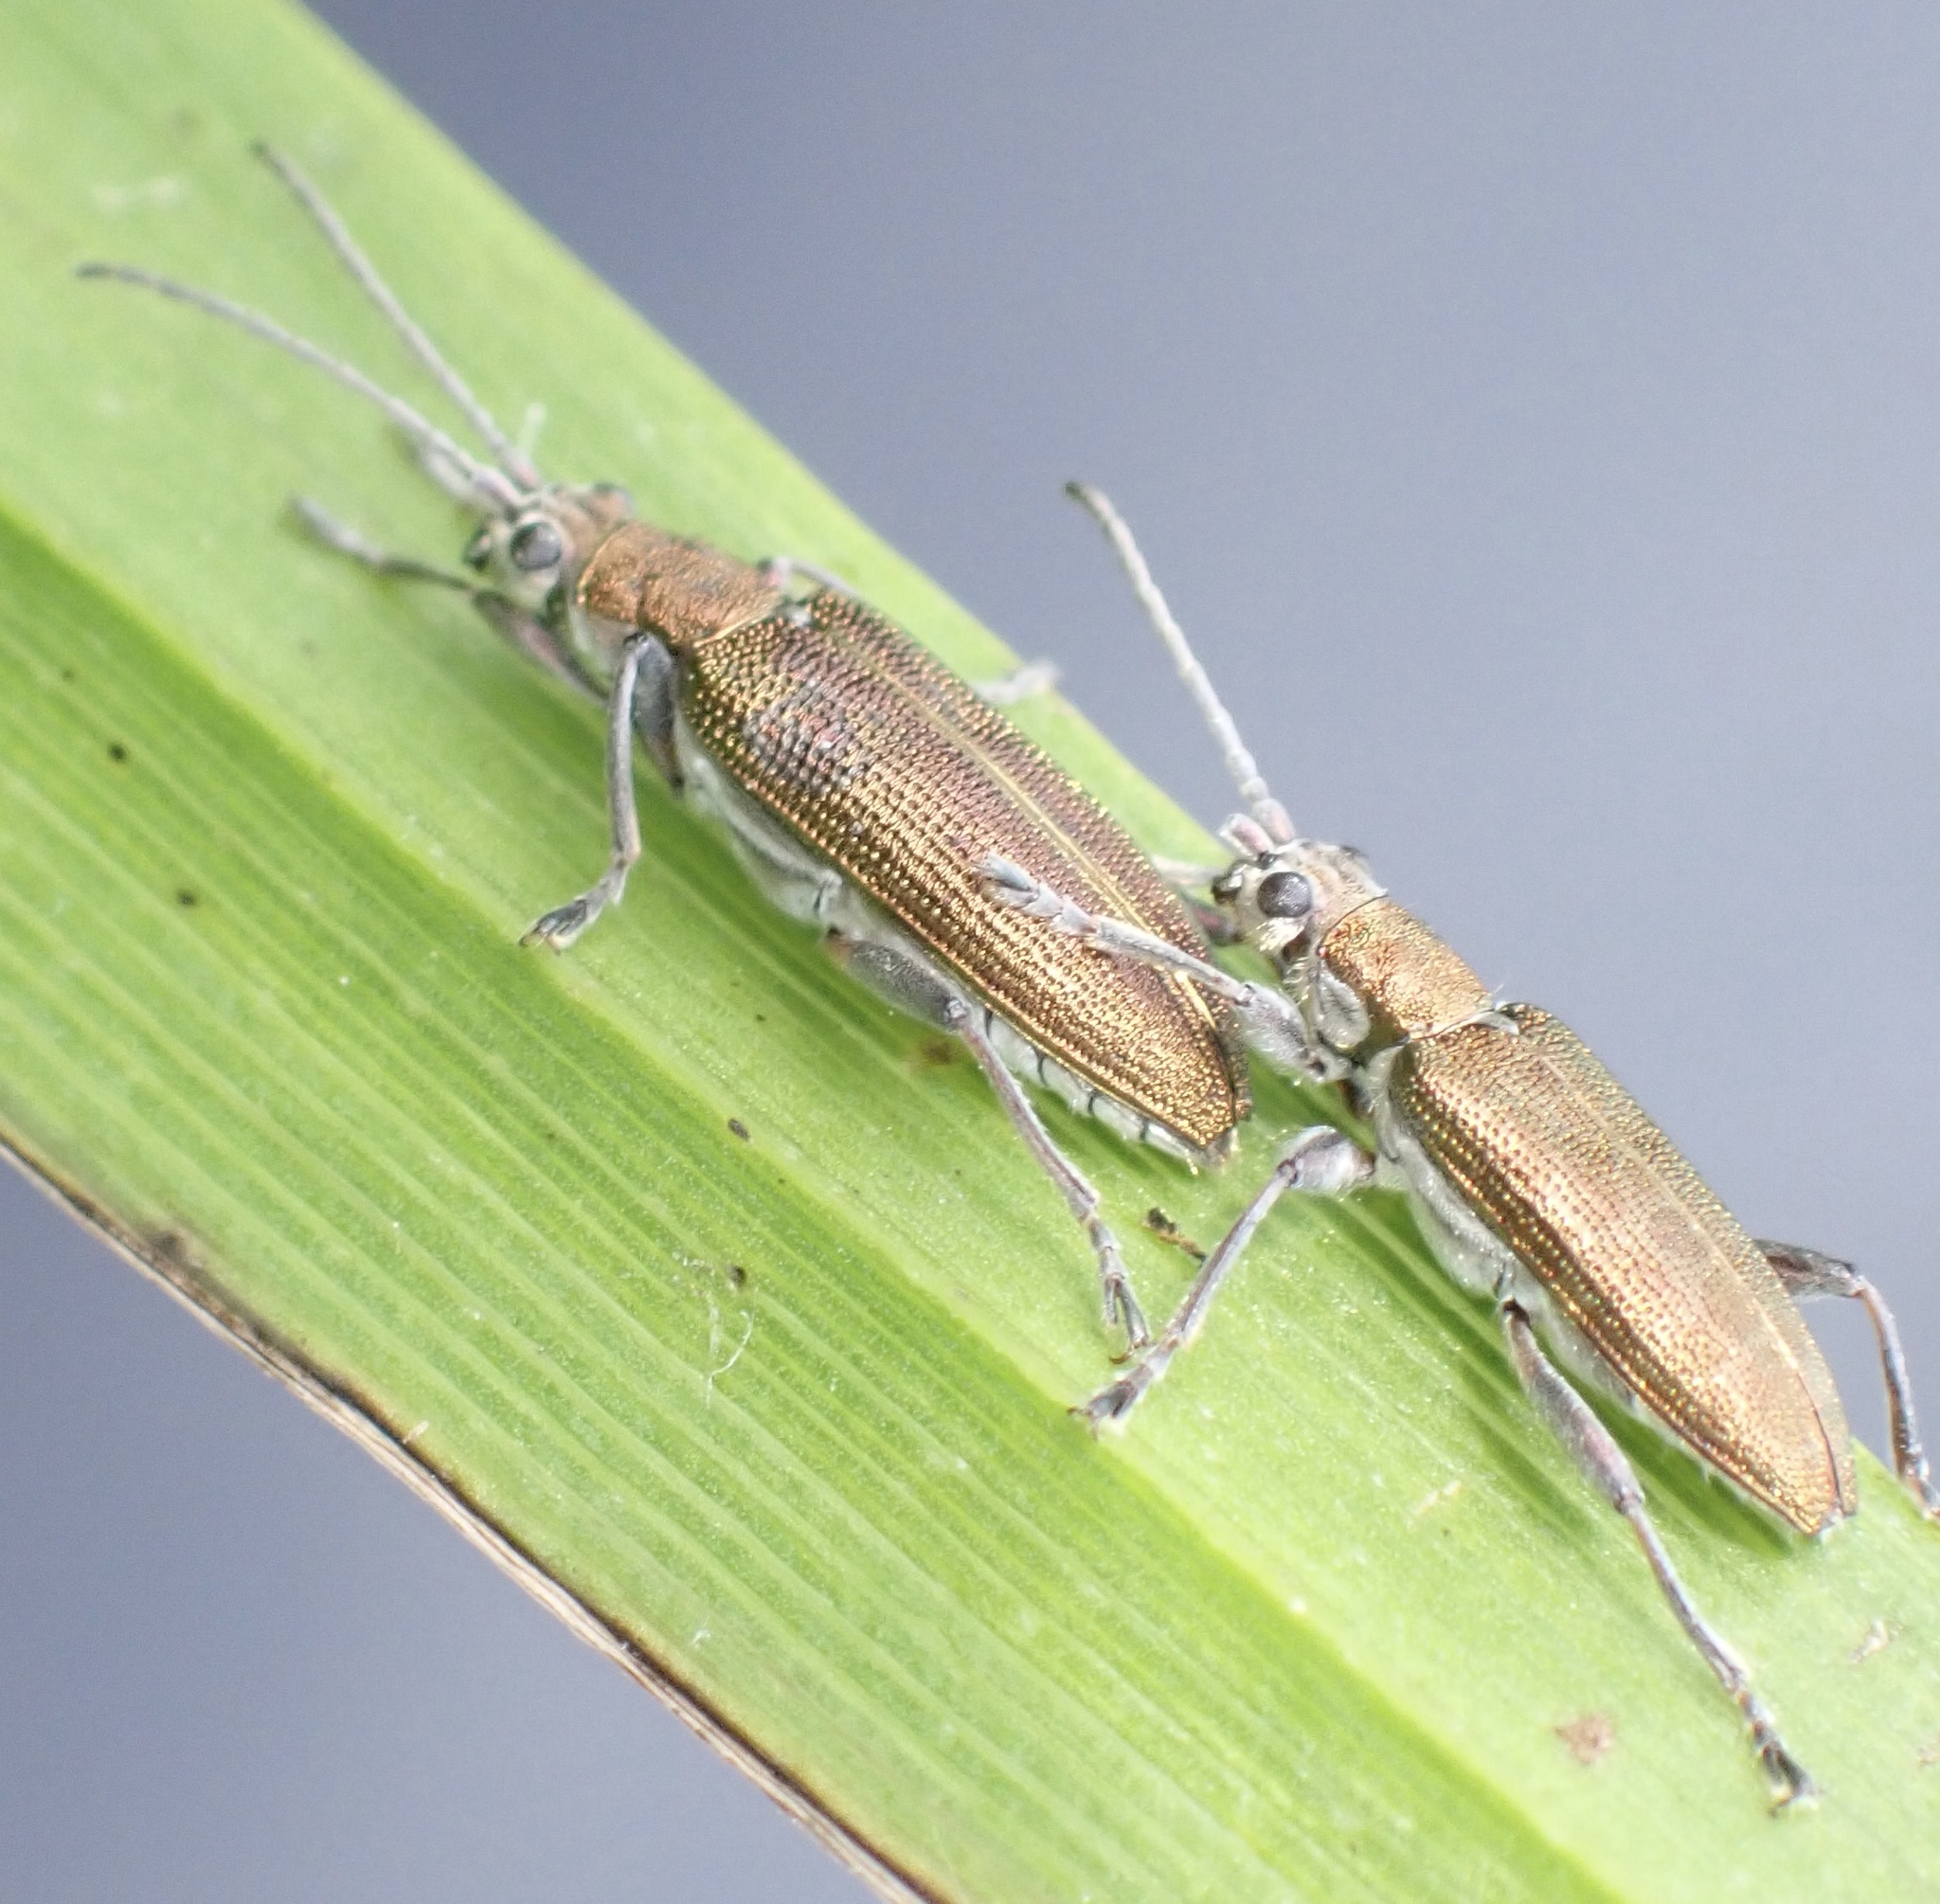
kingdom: Animalia
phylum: Arthropoda
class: Insecta
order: Coleoptera
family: Chrysomelidae
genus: Donacia
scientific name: Donacia vulgaris
